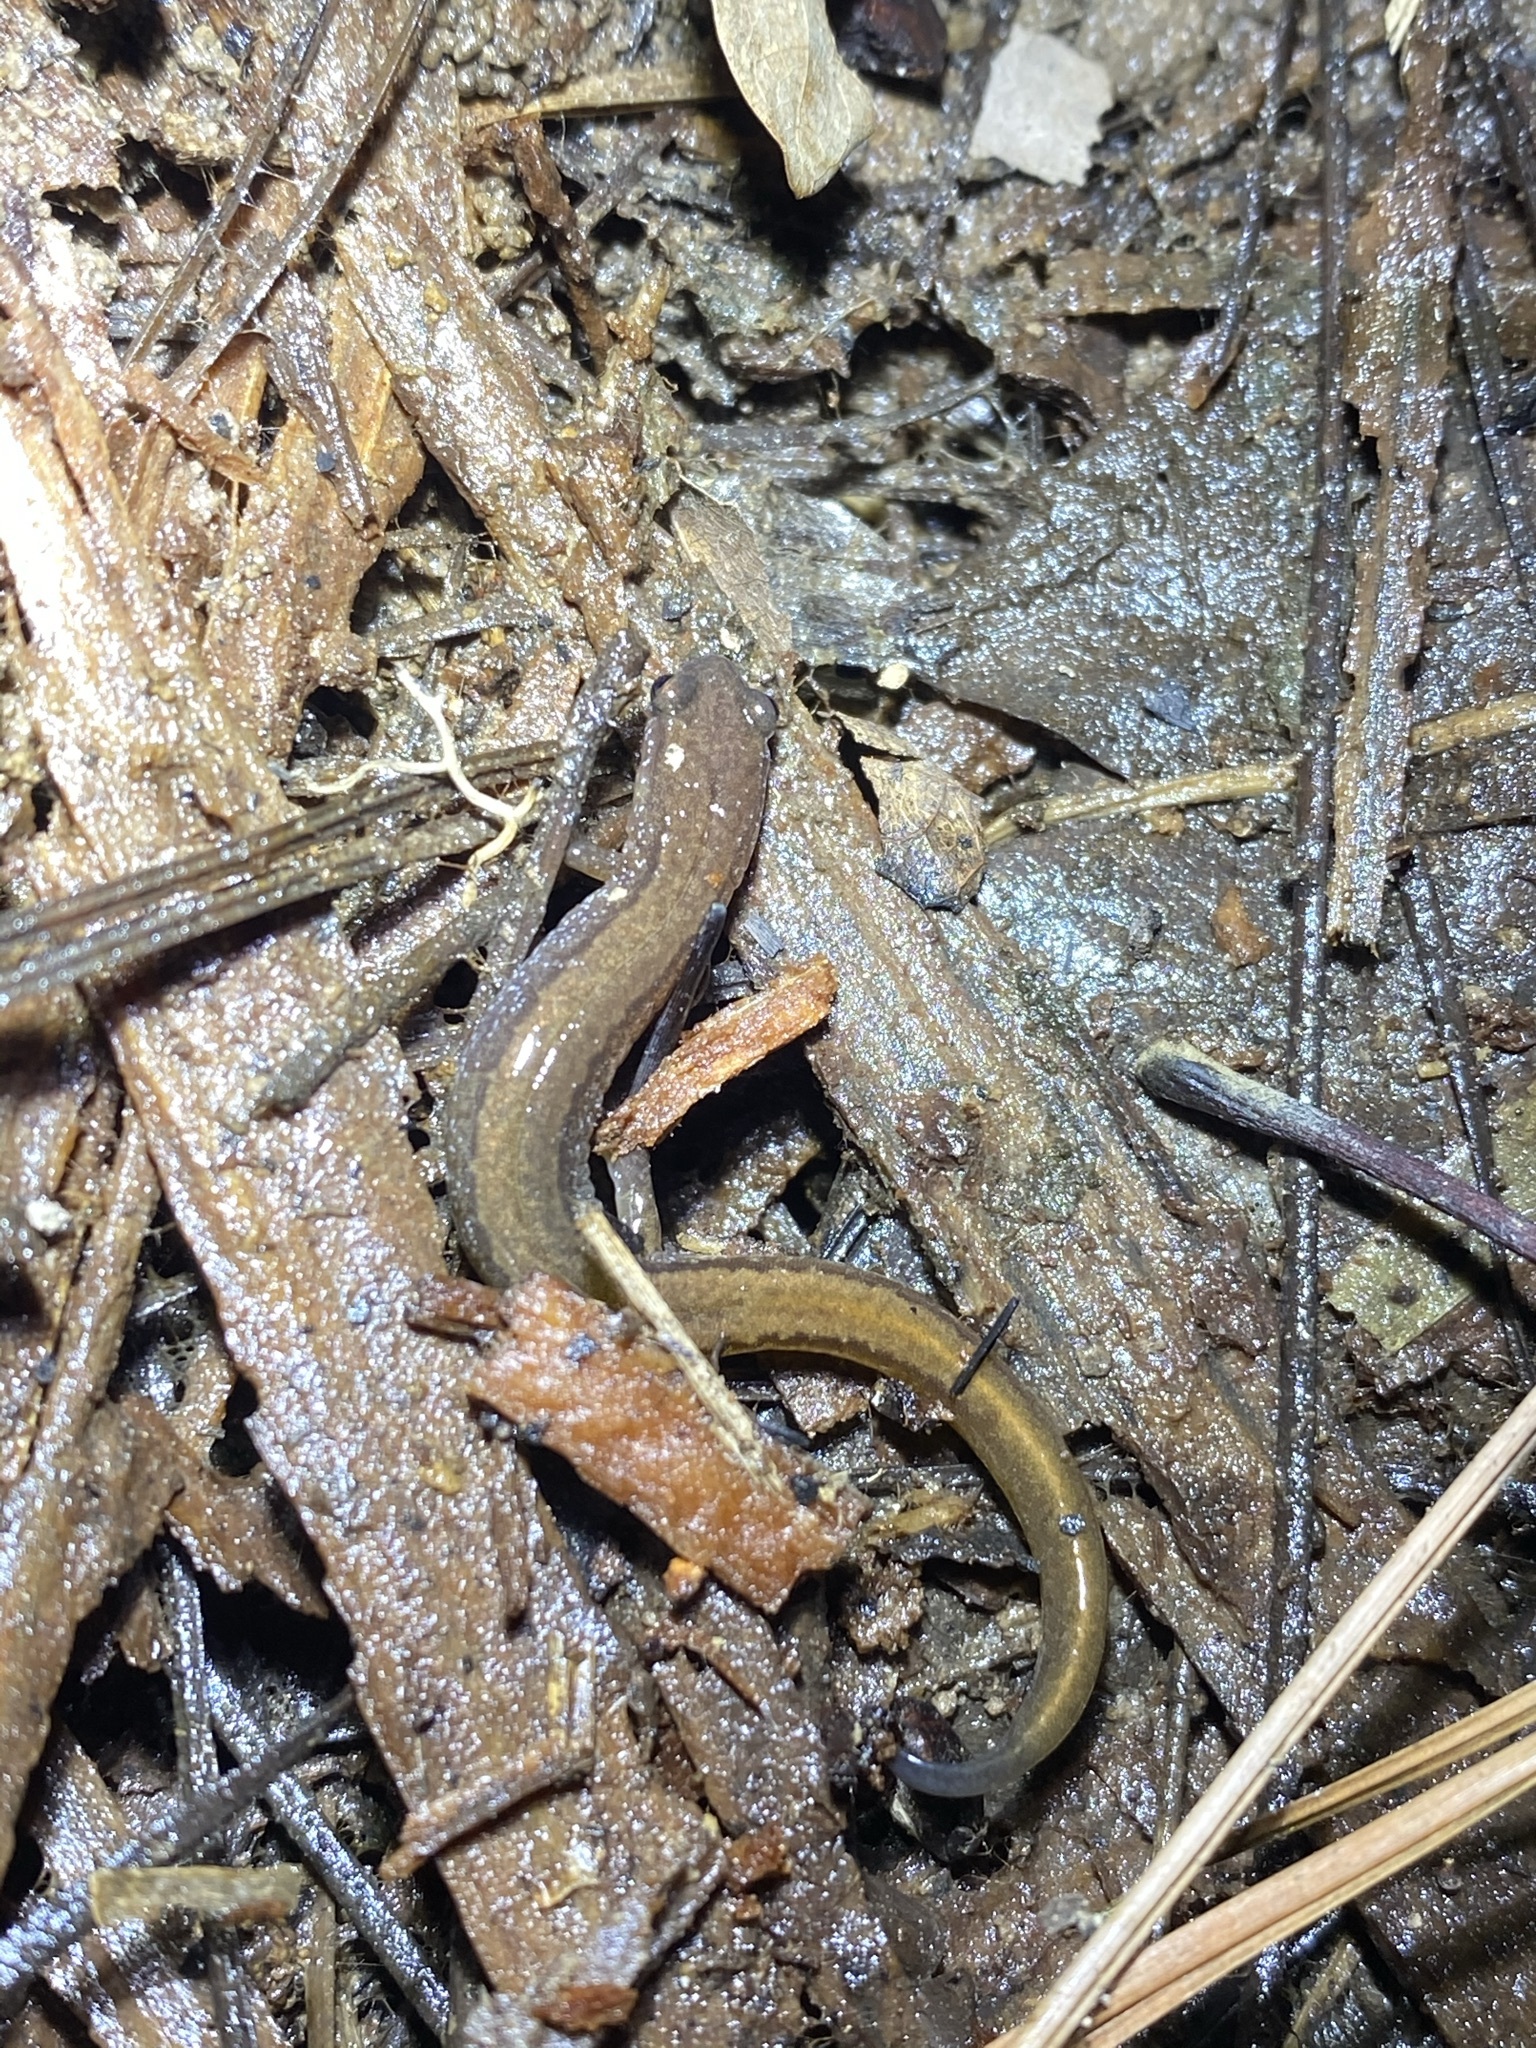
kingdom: Animalia
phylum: Chordata
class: Amphibia
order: Caudata
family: Plethodontidae
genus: Eurycea
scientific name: Eurycea paludicola
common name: Western dwarf salamander
